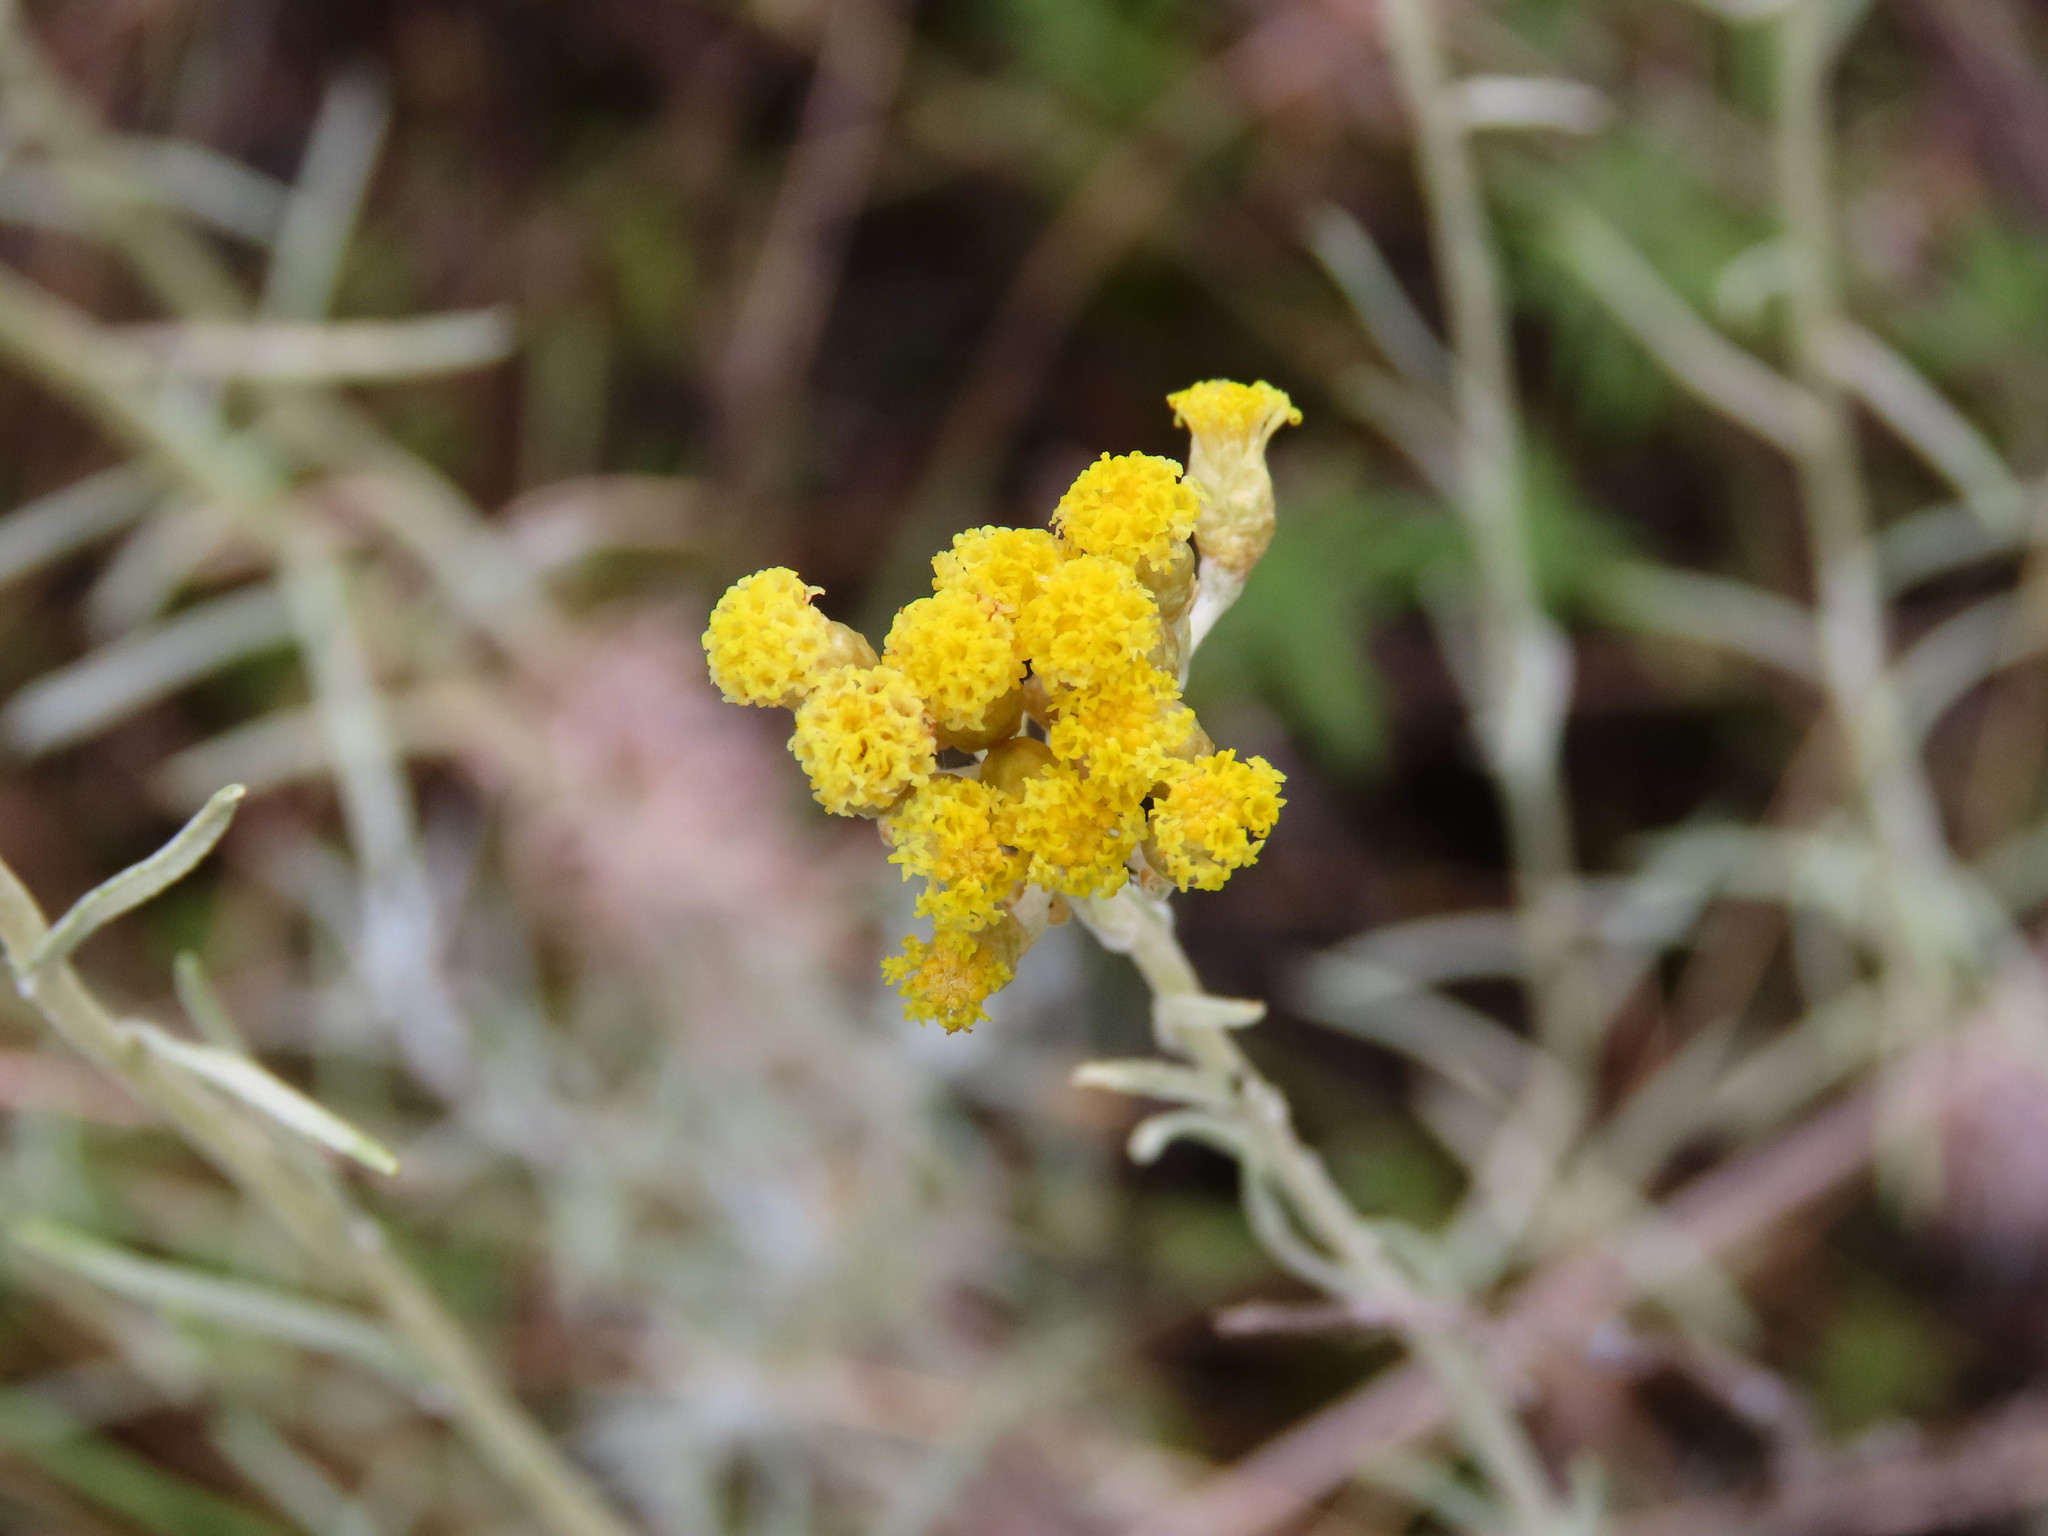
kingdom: Plantae
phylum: Tracheophyta
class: Magnoliopsida
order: Asterales
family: Asteraceae
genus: Helichrysum
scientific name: Helichrysum italicum
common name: Curryplant
